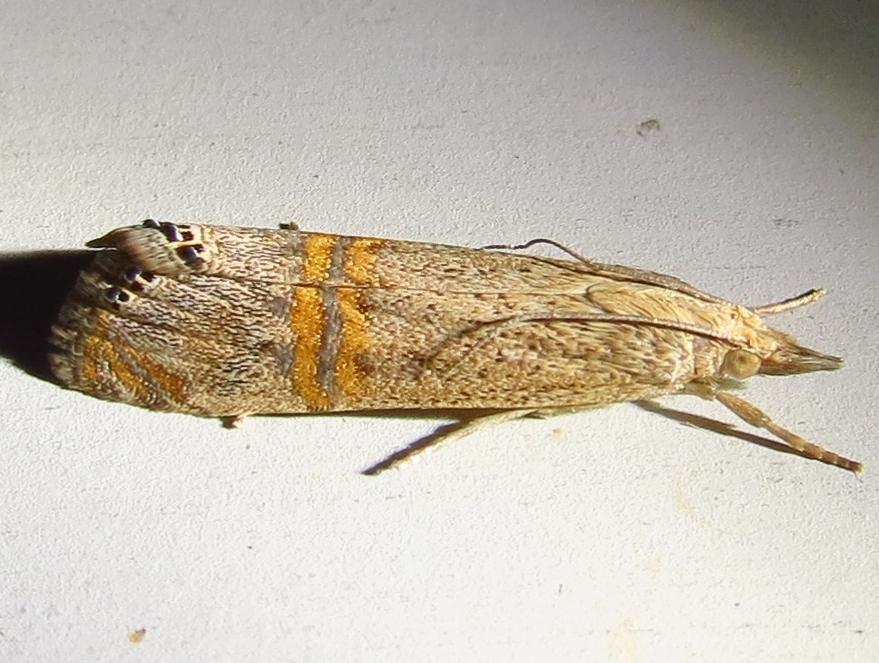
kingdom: Animalia
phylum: Arthropoda
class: Insecta
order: Lepidoptera
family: Crambidae
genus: Euchromius
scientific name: Euchromius ocellea
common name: Necklace veneer moth
